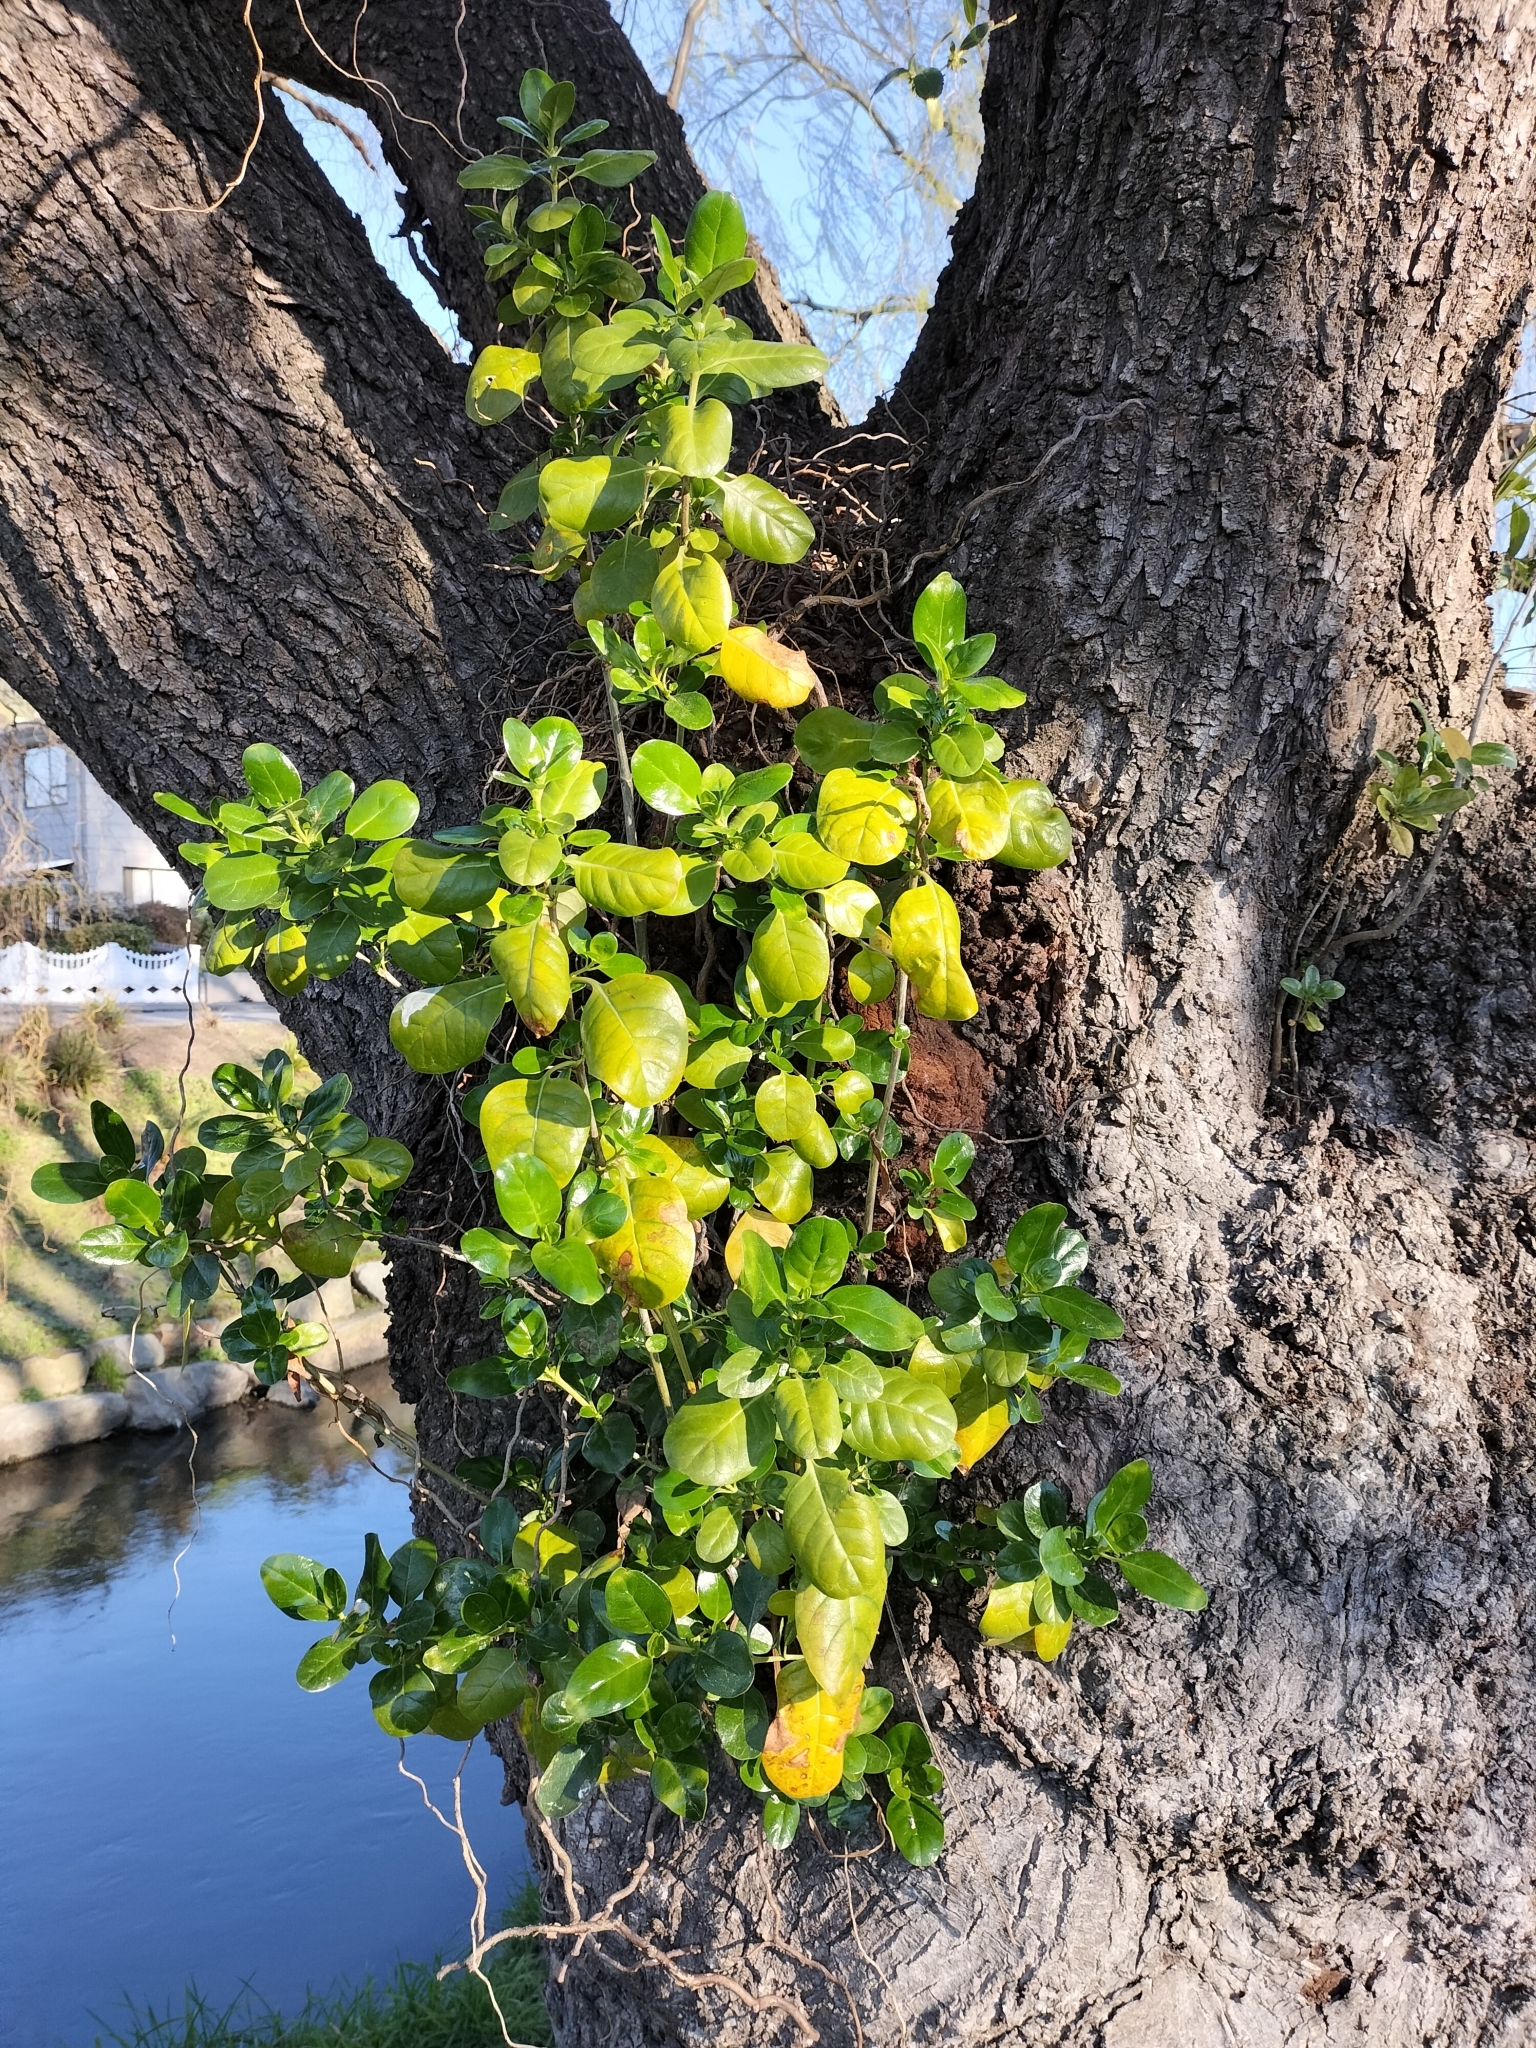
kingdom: Plantae
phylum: Tracheophyta
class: Magnoliopsida
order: Gentianales
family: Rubiaceae
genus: Coprosma
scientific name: Coprosma repens
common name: Tree bedstraw
